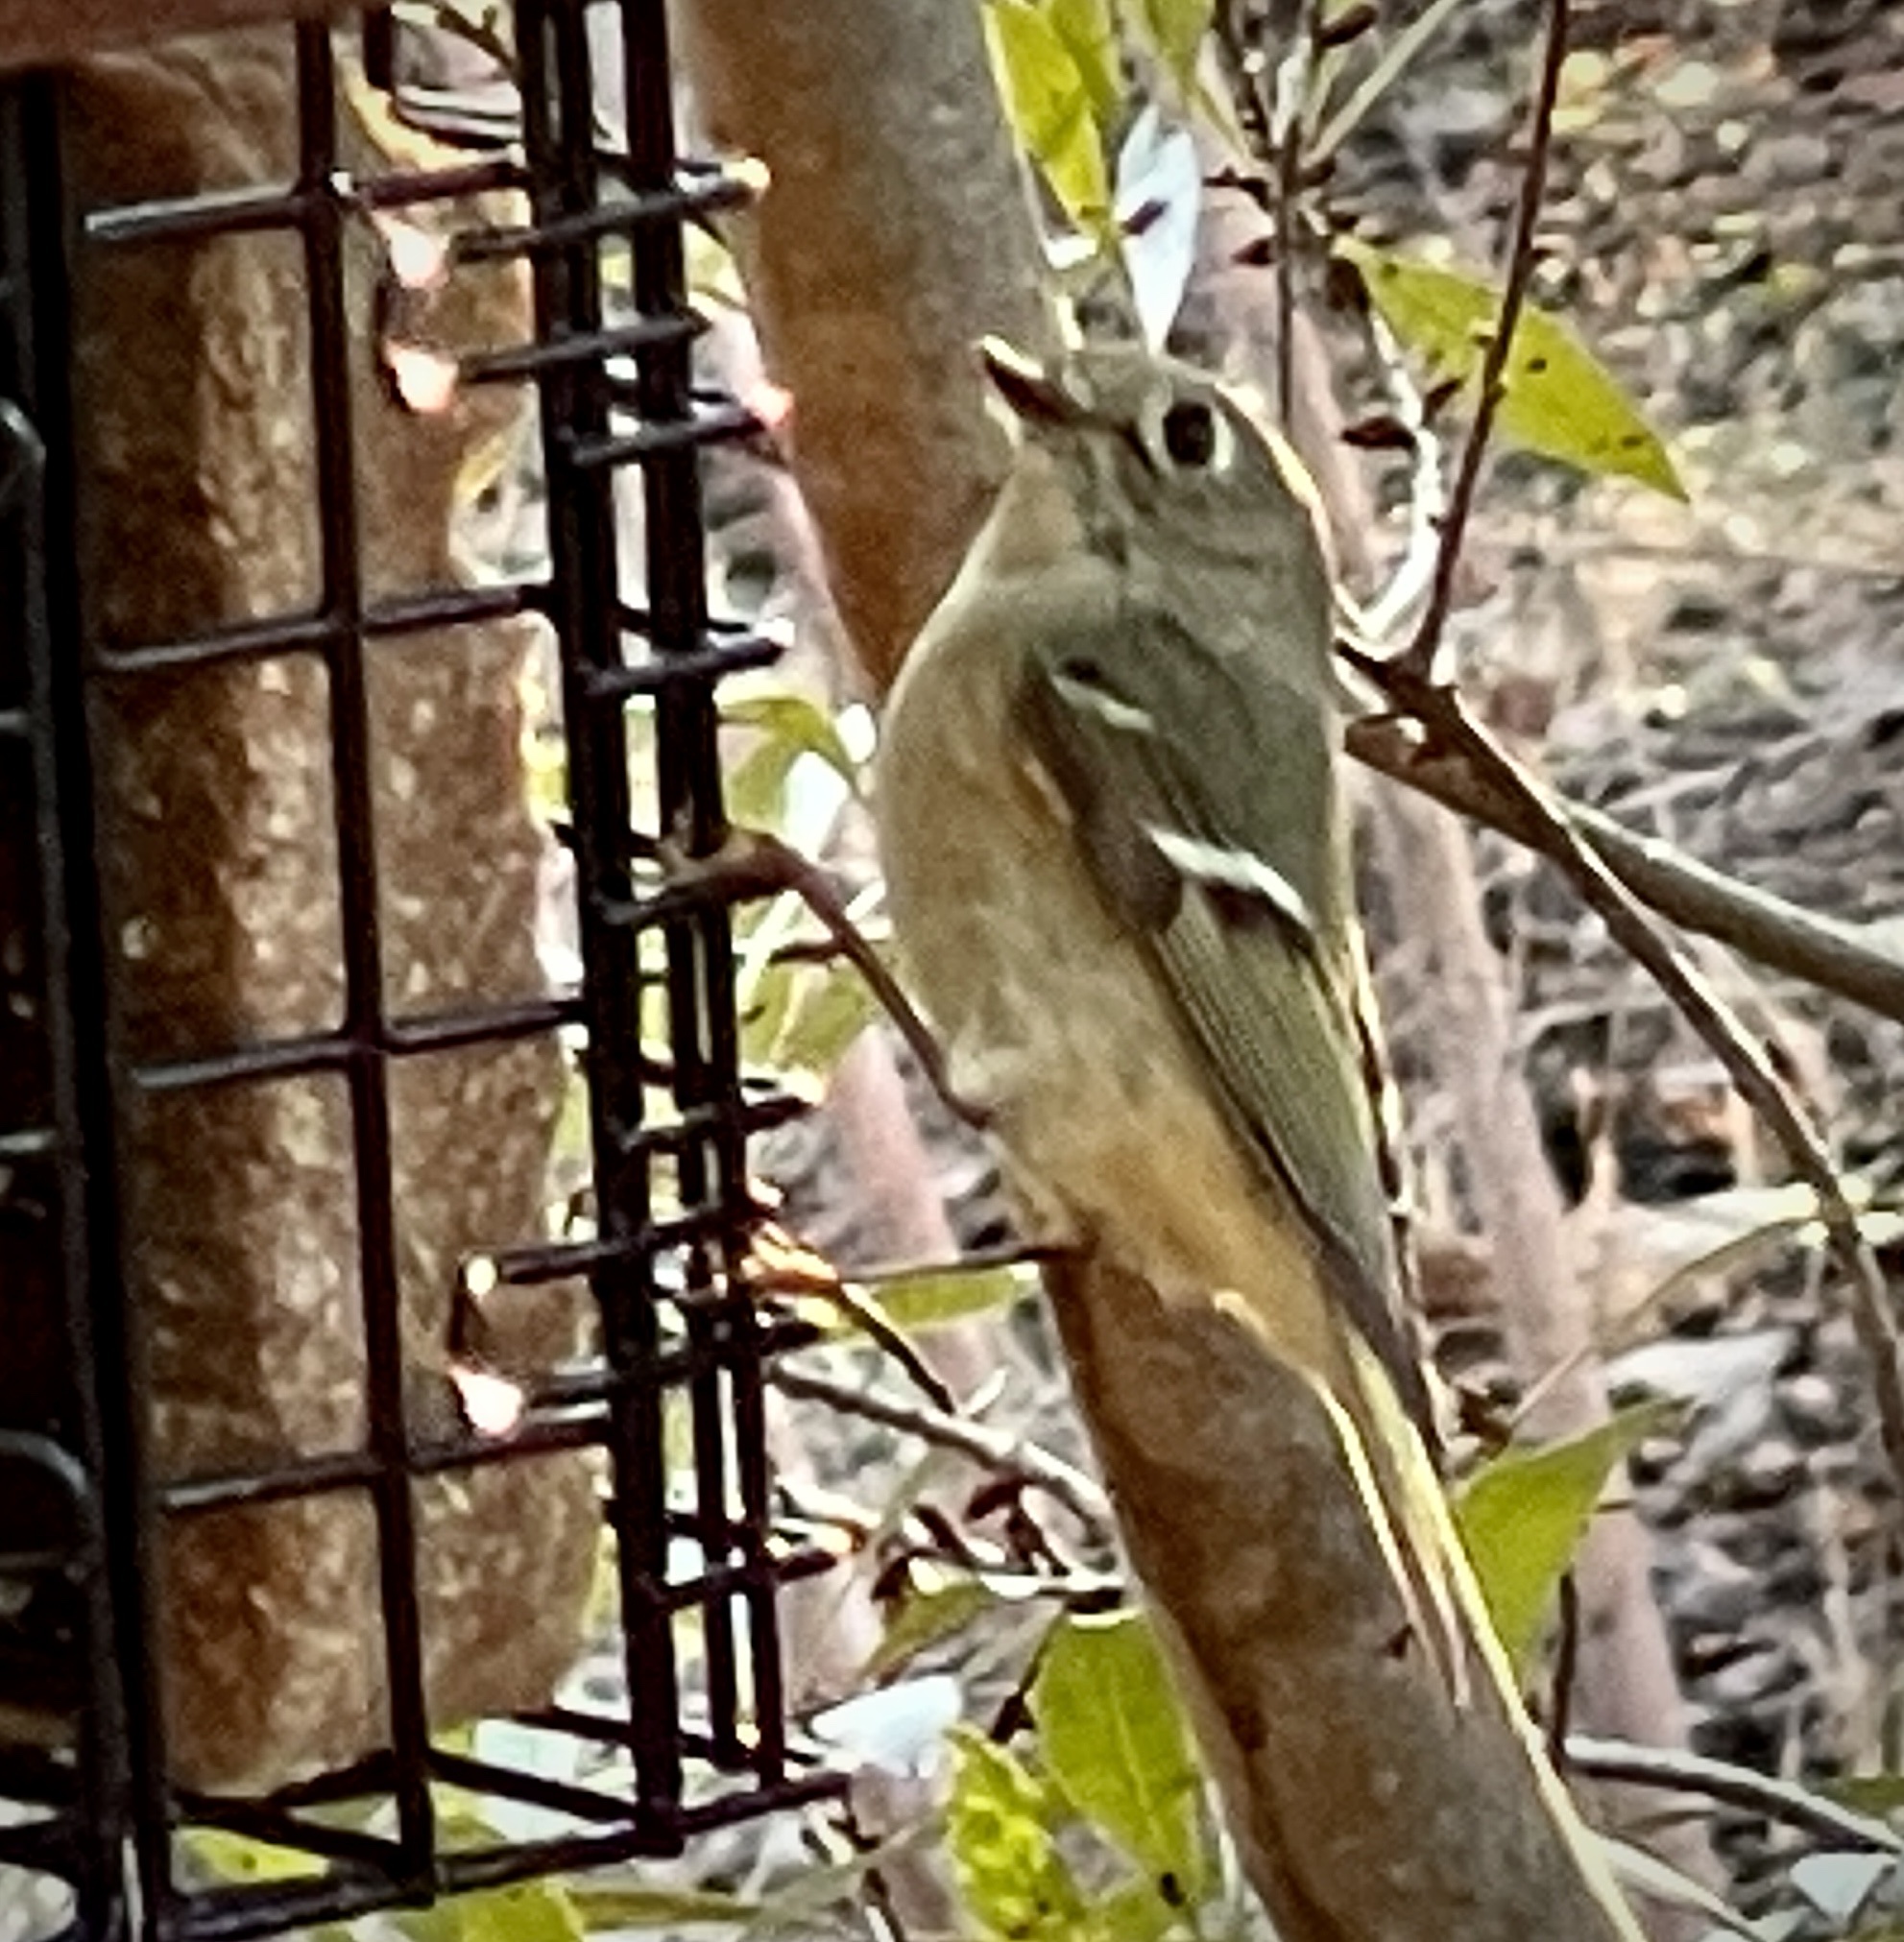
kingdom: Animalia
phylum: Chordata
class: Aves
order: Passeriformes
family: Regulidae
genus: Regulus
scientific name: Regulus calendula
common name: Ruby-crowned kinglet
